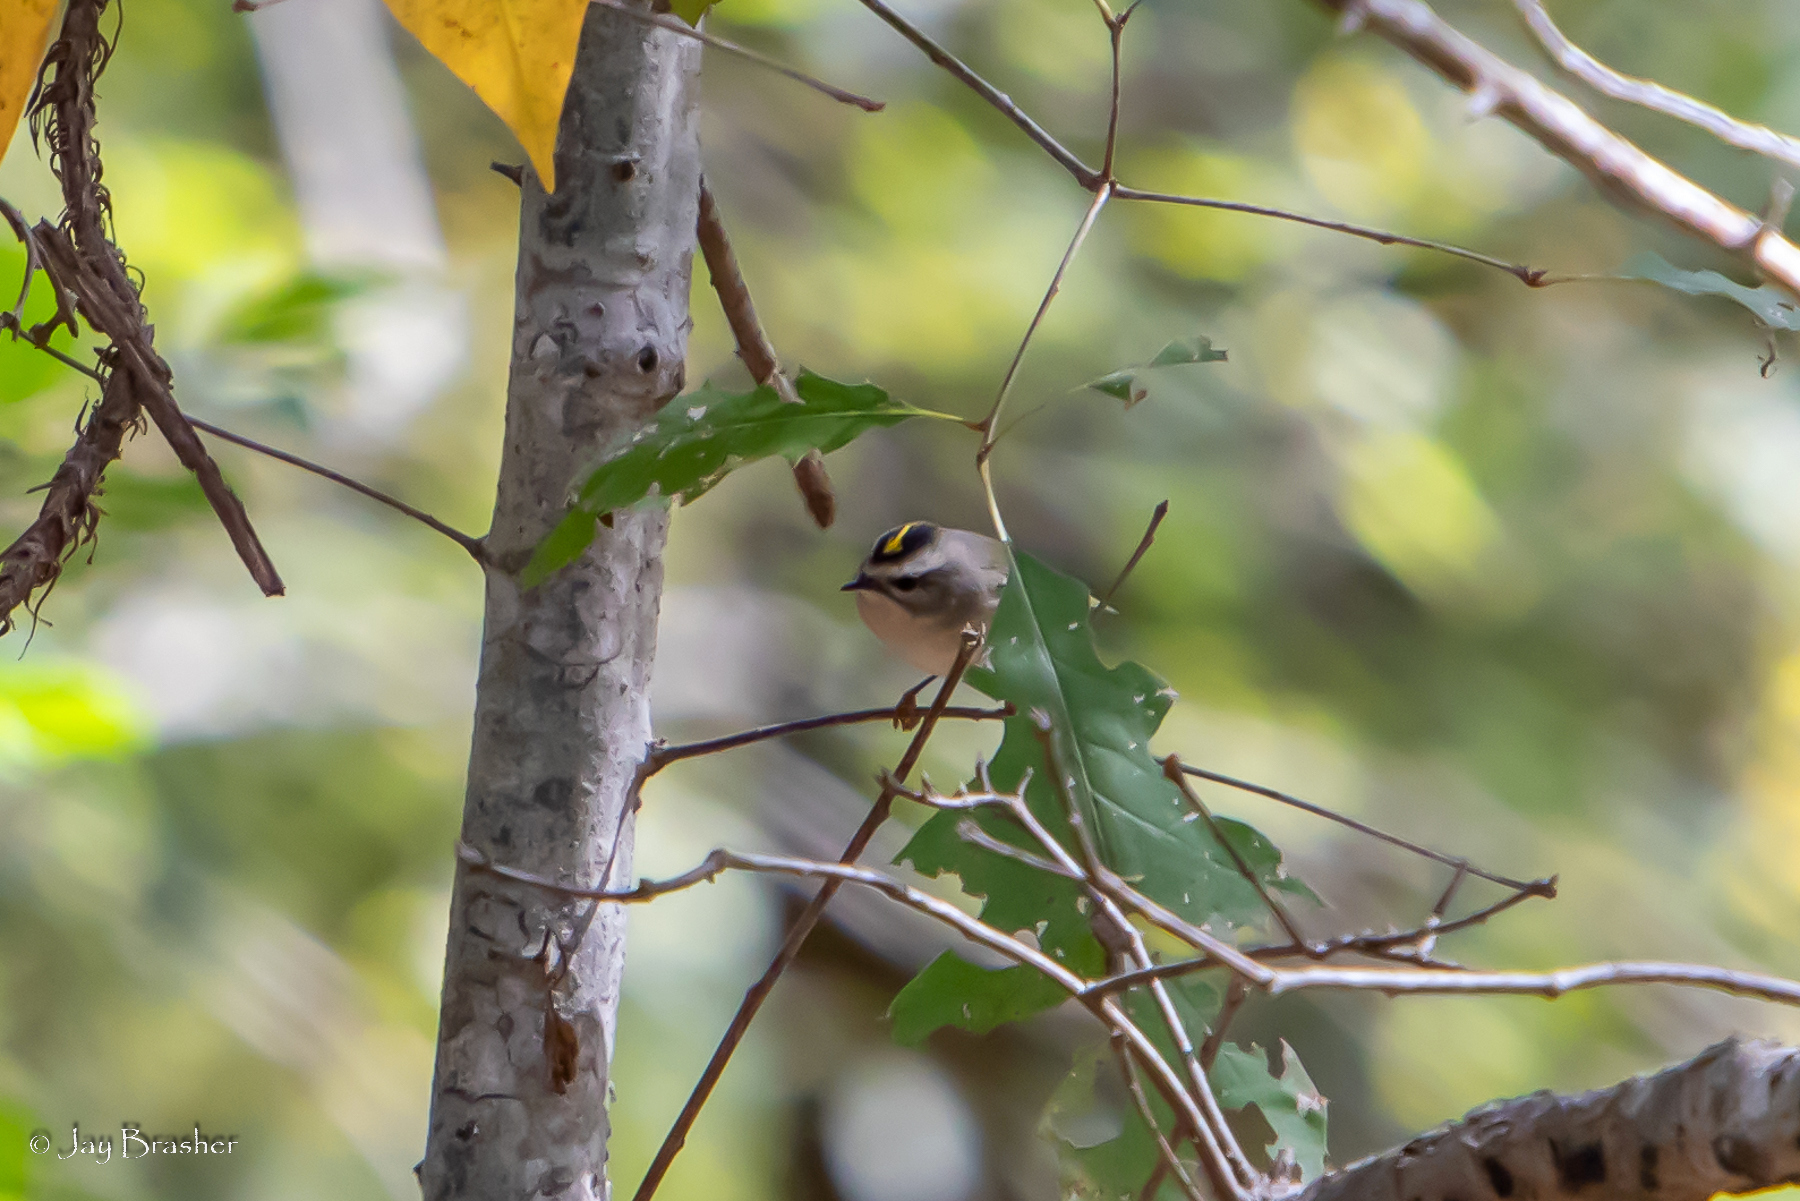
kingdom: Animalia
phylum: Chordata
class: Aves
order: Passeriformes
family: Regulidae
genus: Regulus
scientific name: Regulus satrapa
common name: Golden-crowned kinglet
